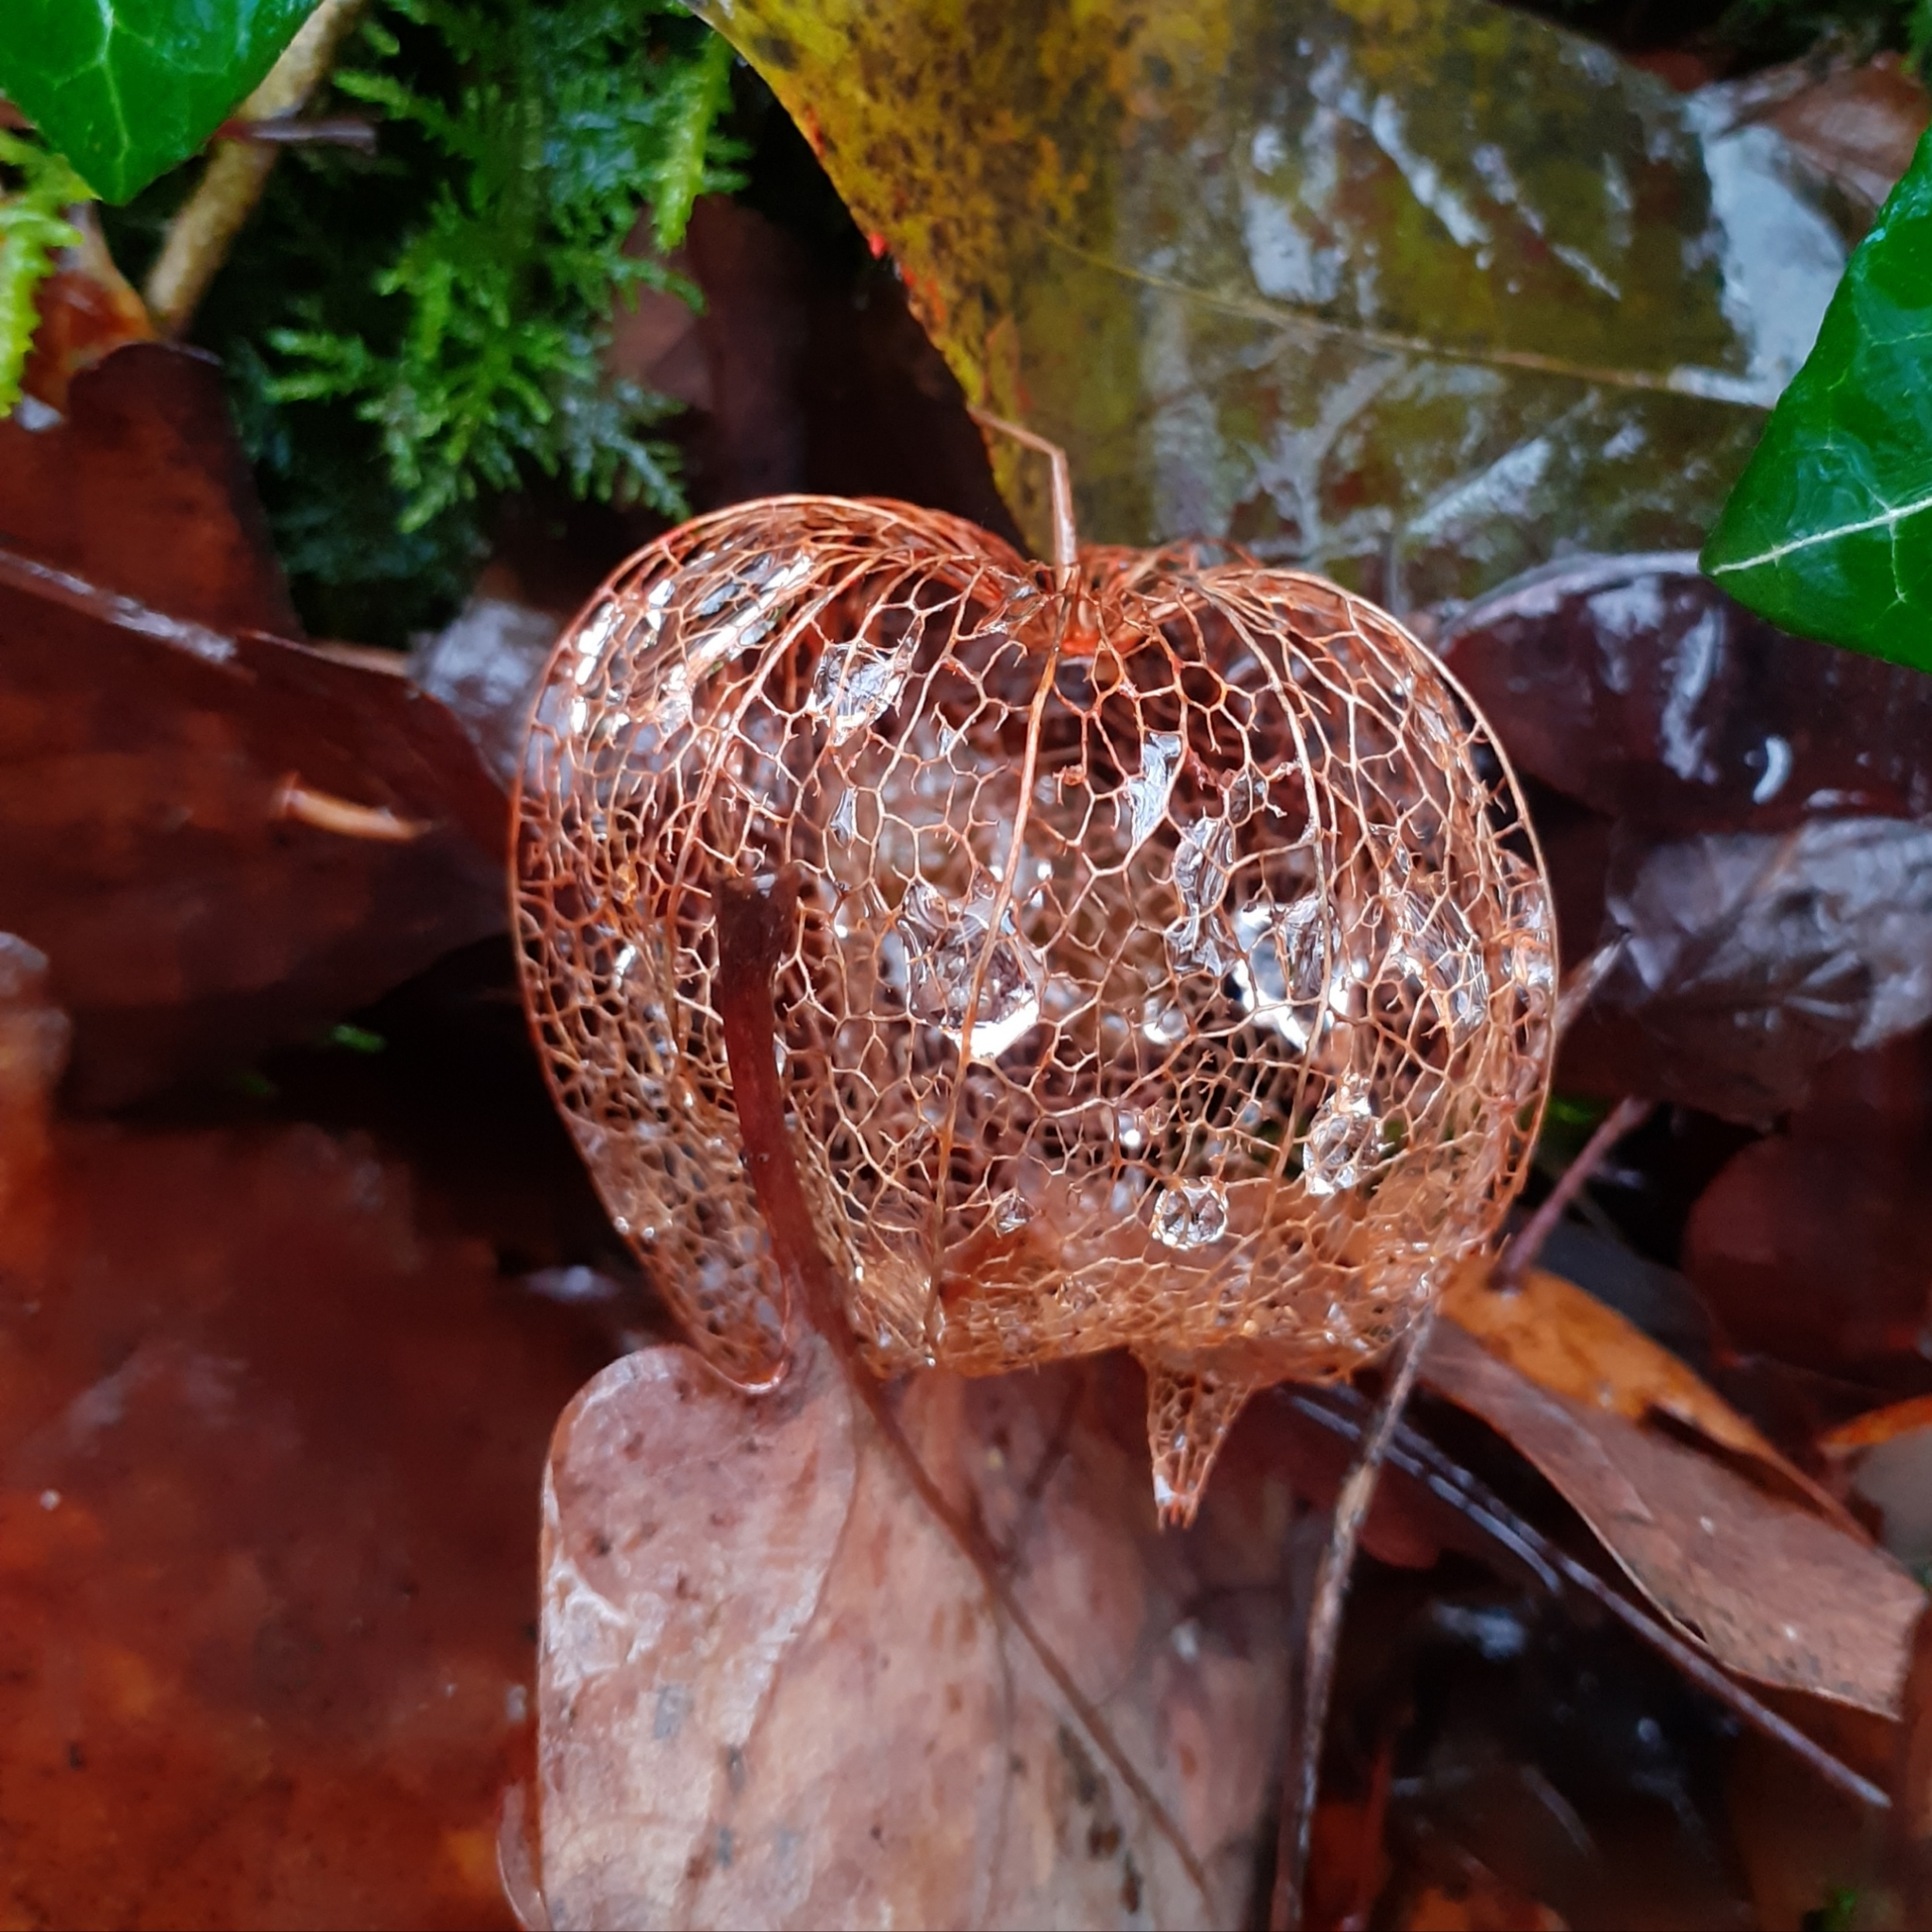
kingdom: Plantae
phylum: Tracheophyta
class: Magnoliopsida
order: Solanales
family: Solanaceae
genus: Alkekengi
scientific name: Alkekengi officinarum
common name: Japanese-lantern
